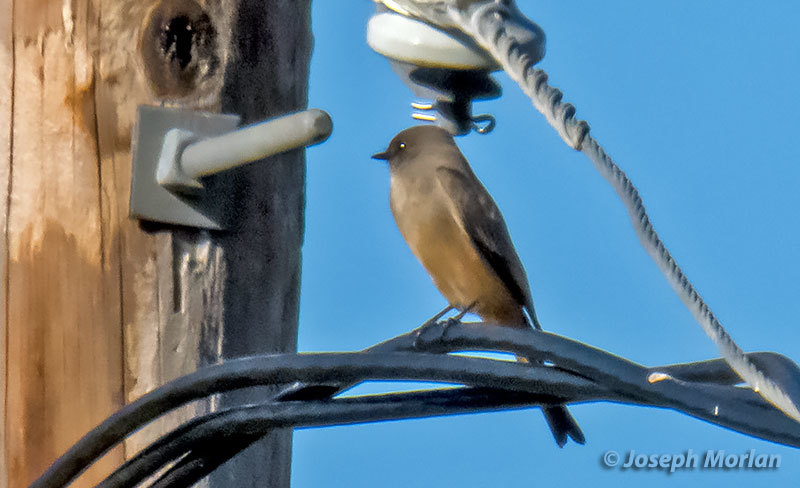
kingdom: Animalia
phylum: Chordata
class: Aves
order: Passeriformes
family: Tyrannidae
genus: Sayornis
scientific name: Sayornis saya
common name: Say's phoebe
